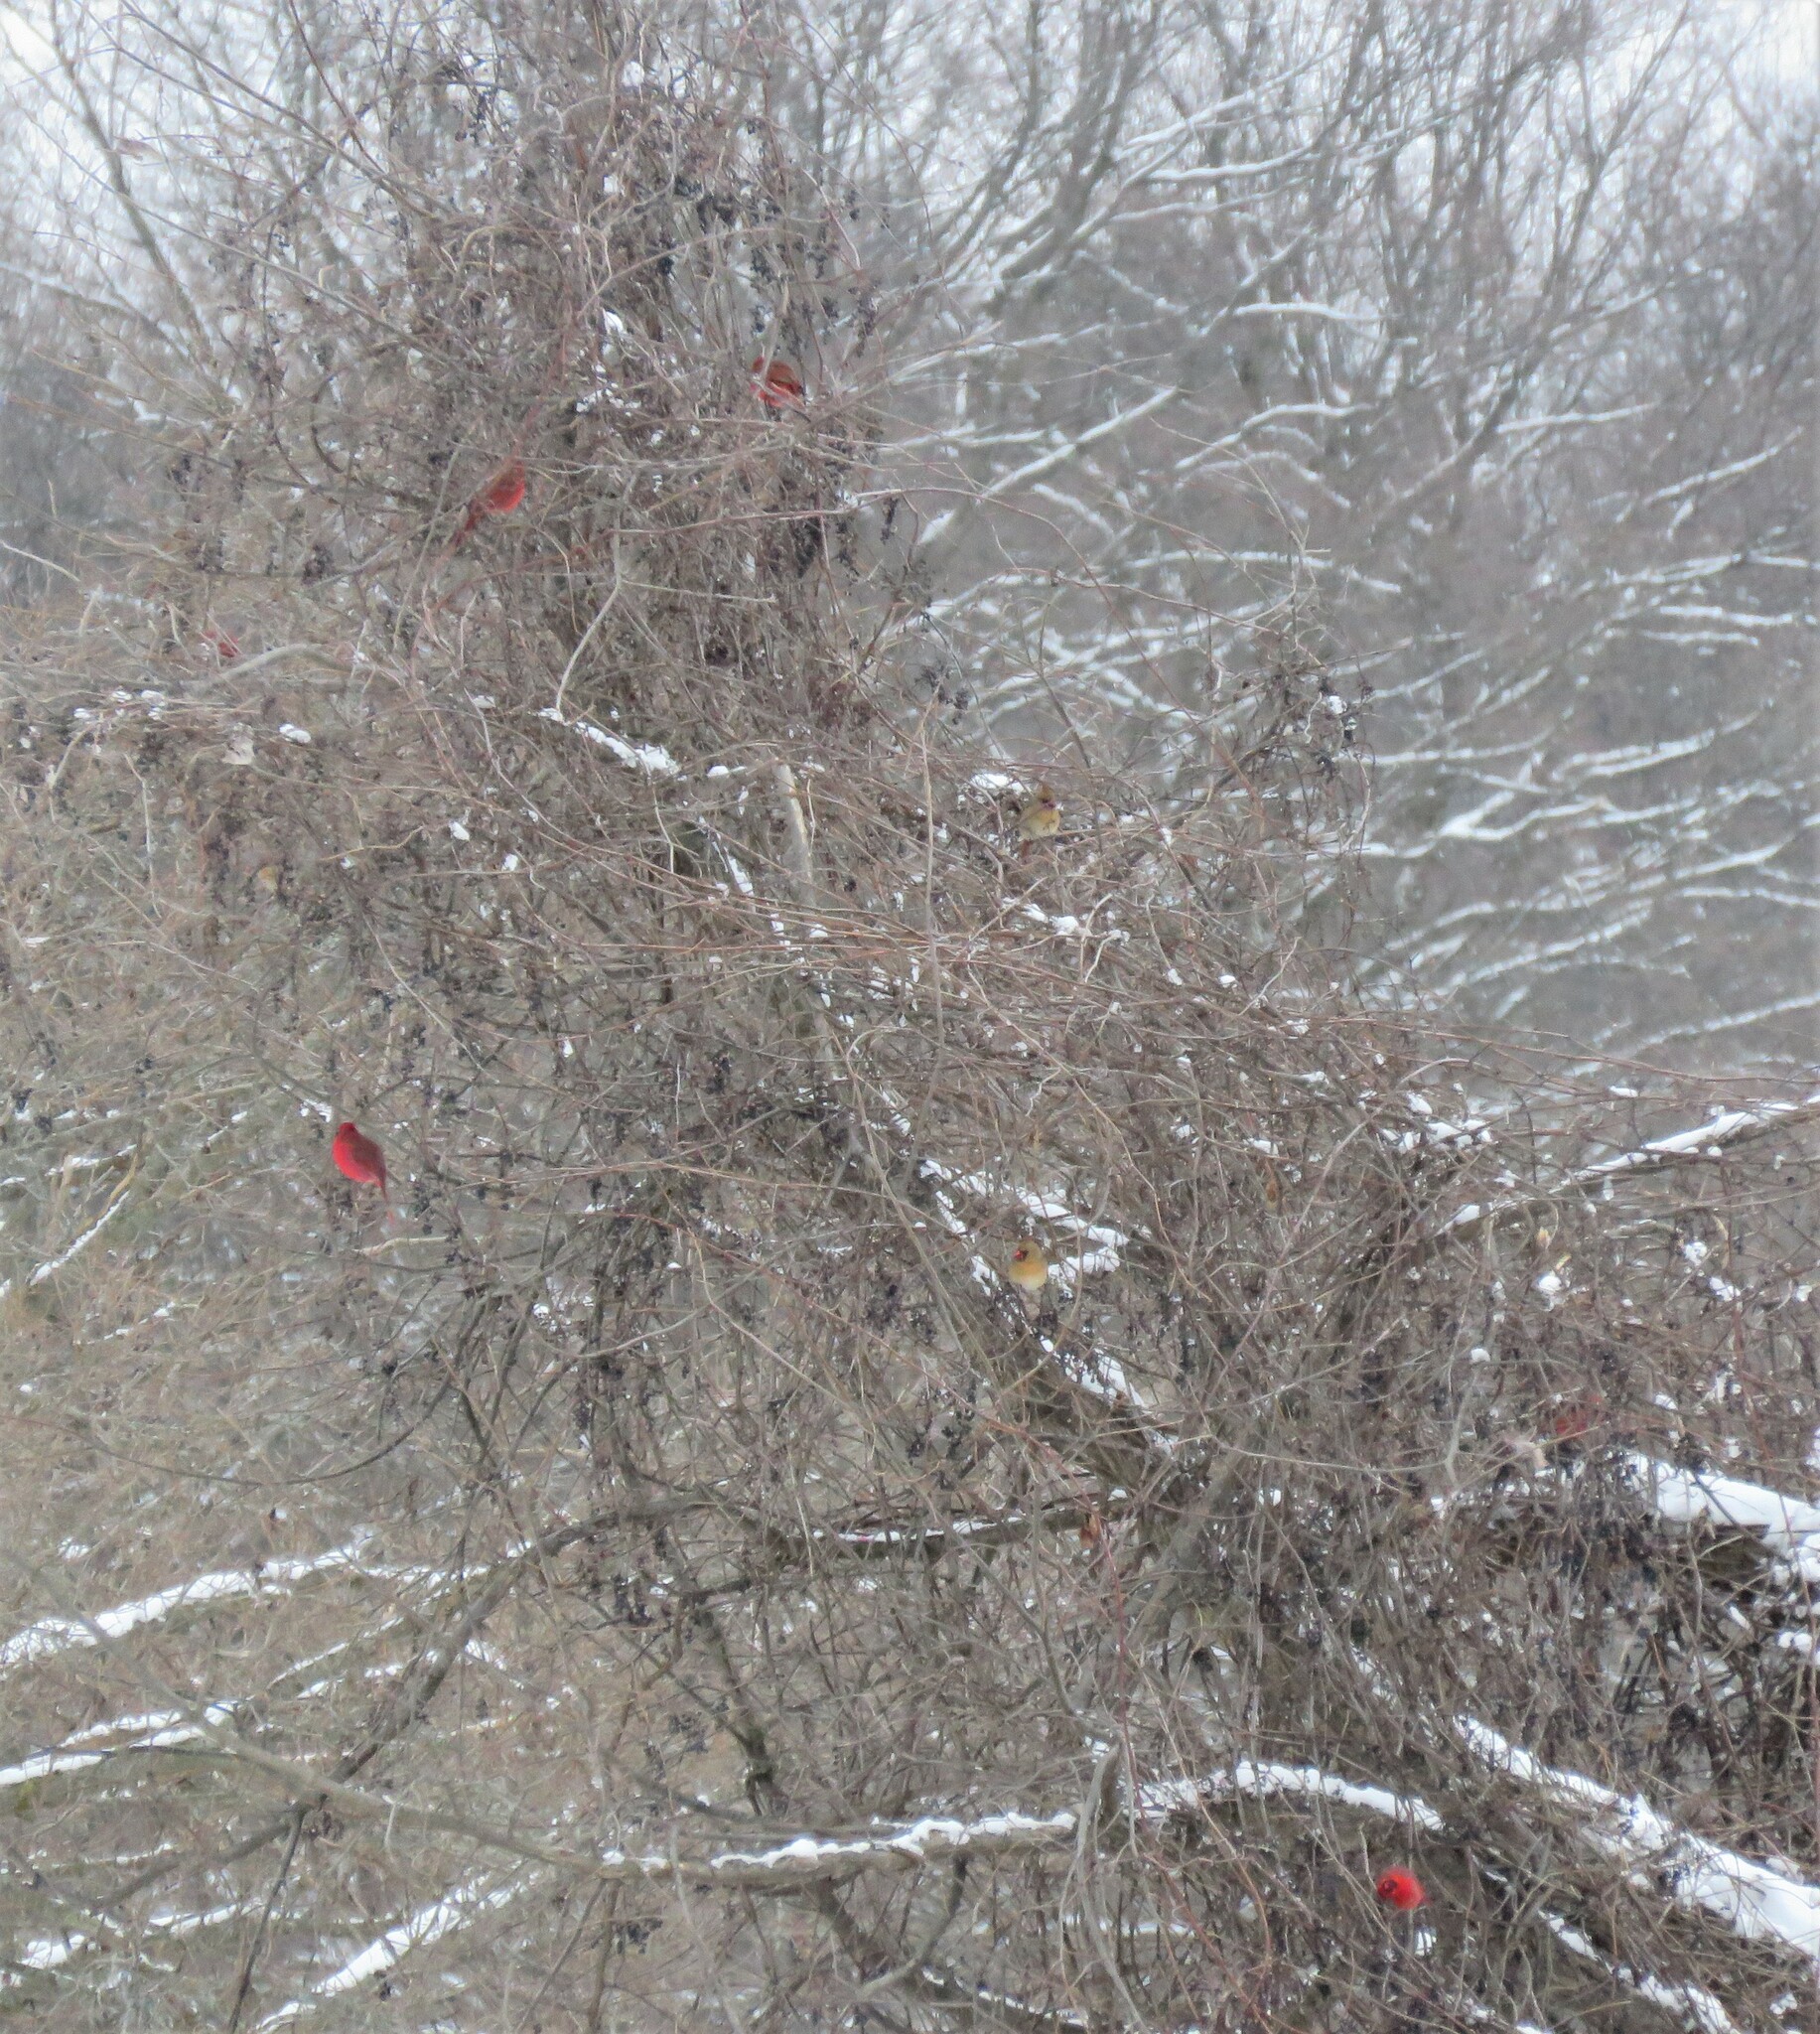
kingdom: Animalia
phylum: Chordata
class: Aves
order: Passeriformes
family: Cardinalidae
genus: Cardinalis
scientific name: Cardinalis cardinalis
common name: Northern cardinal
